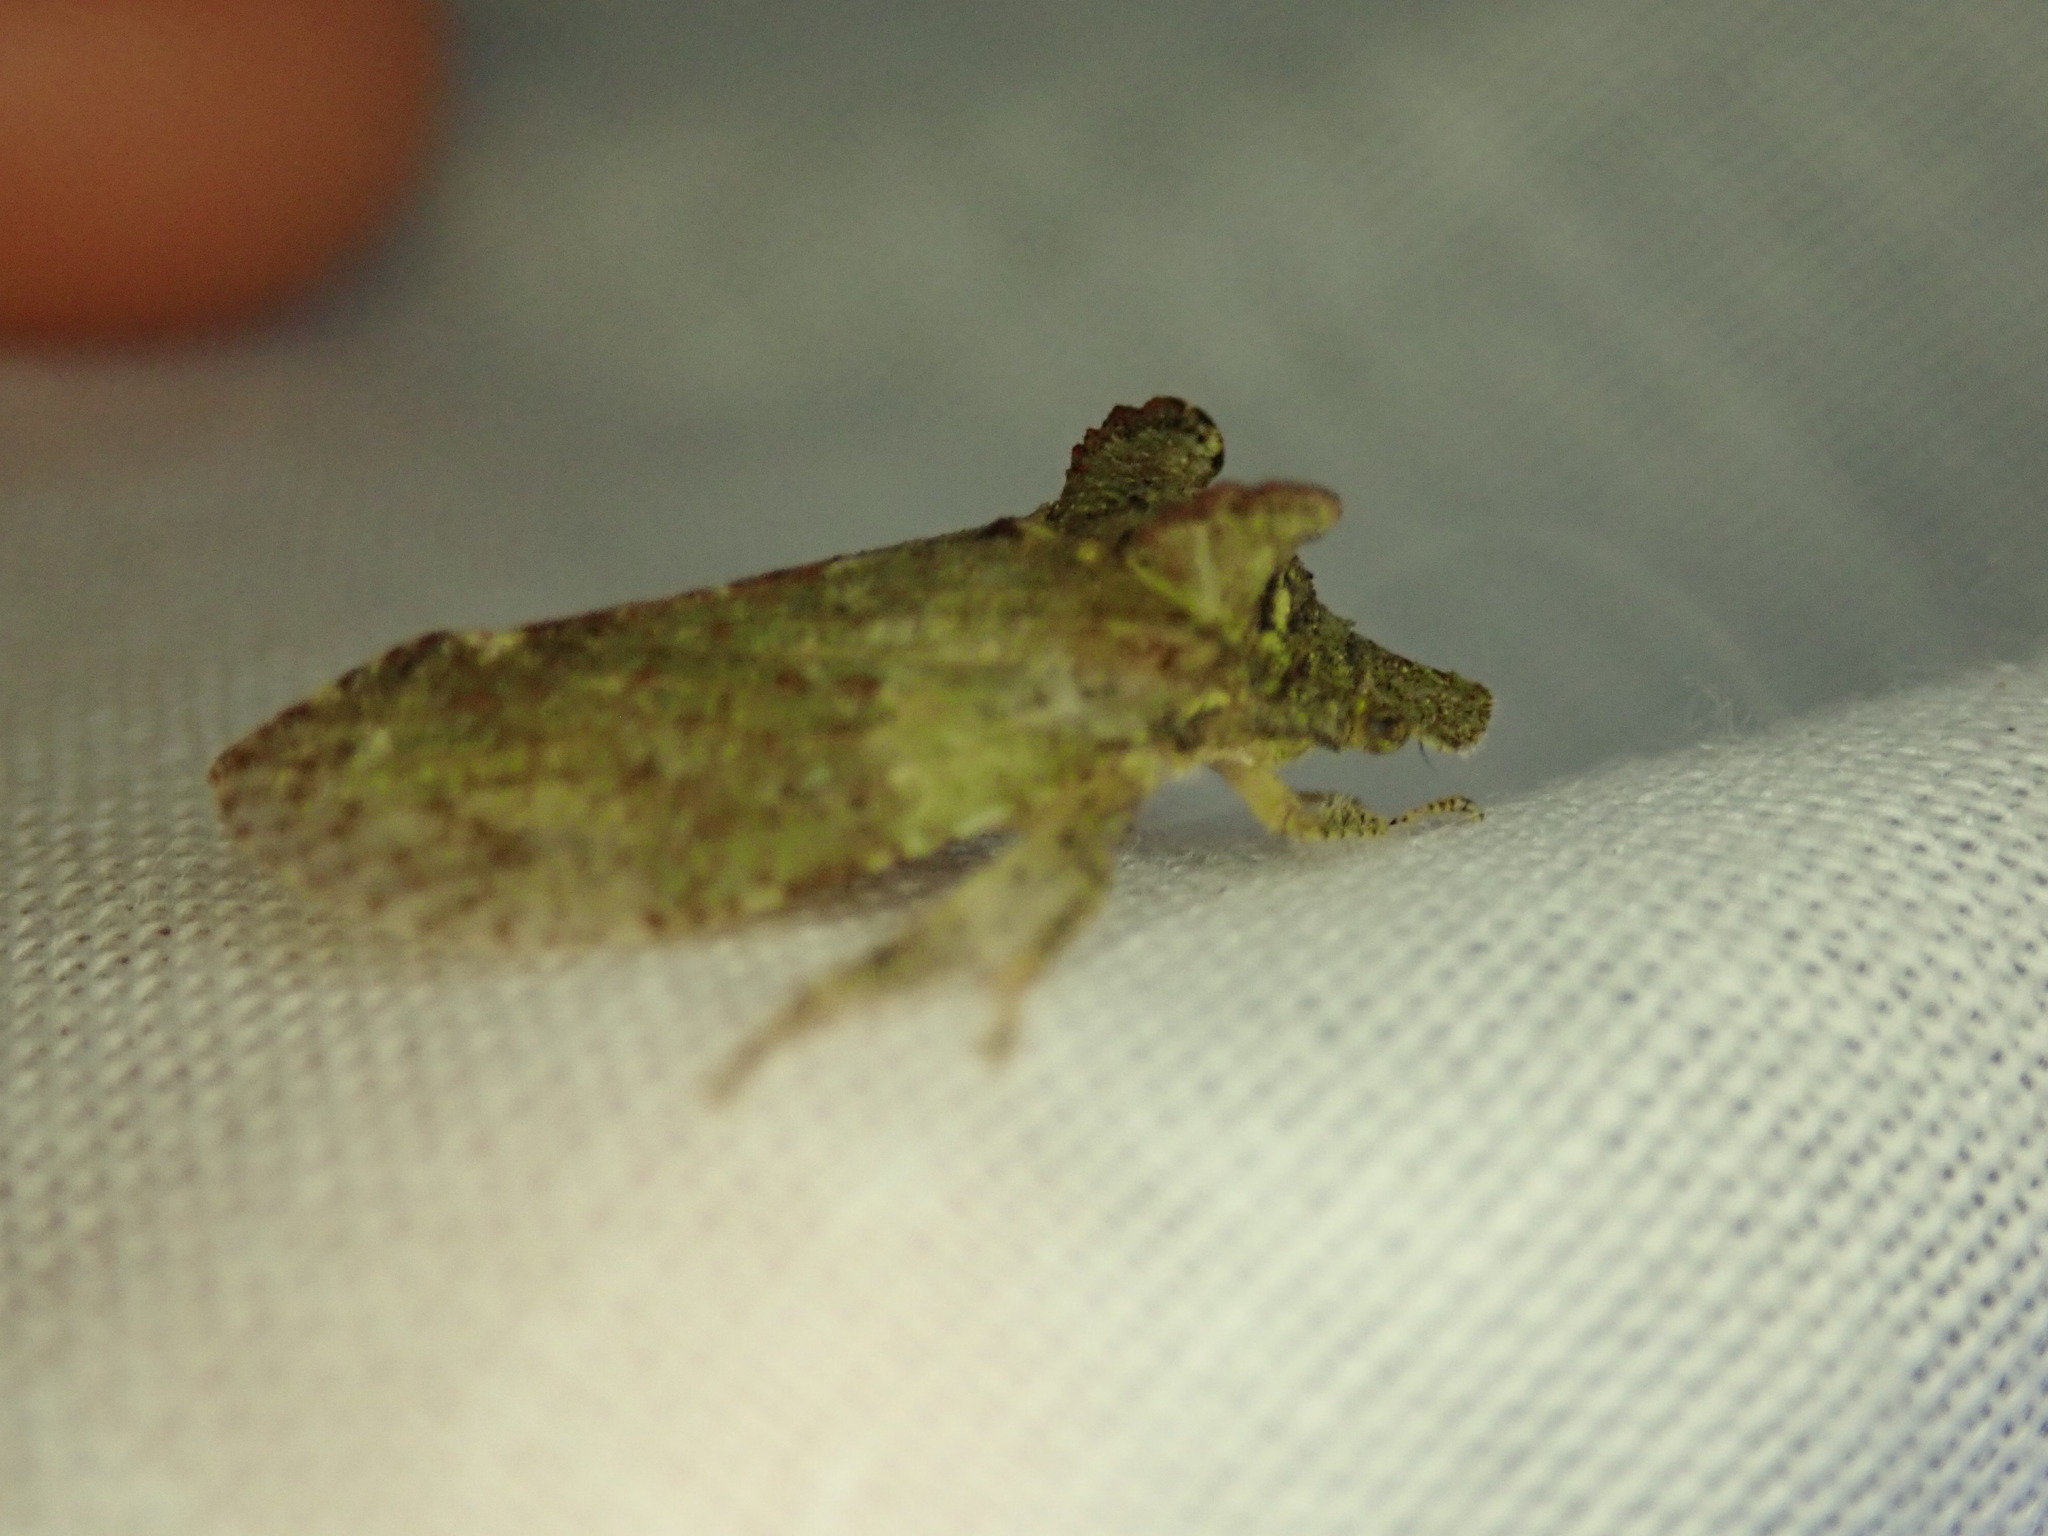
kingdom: Animalia
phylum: Arthropoda
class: Insecta
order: Hemiptera
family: Cicadellidae
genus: Ledra
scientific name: Ledra aurita
